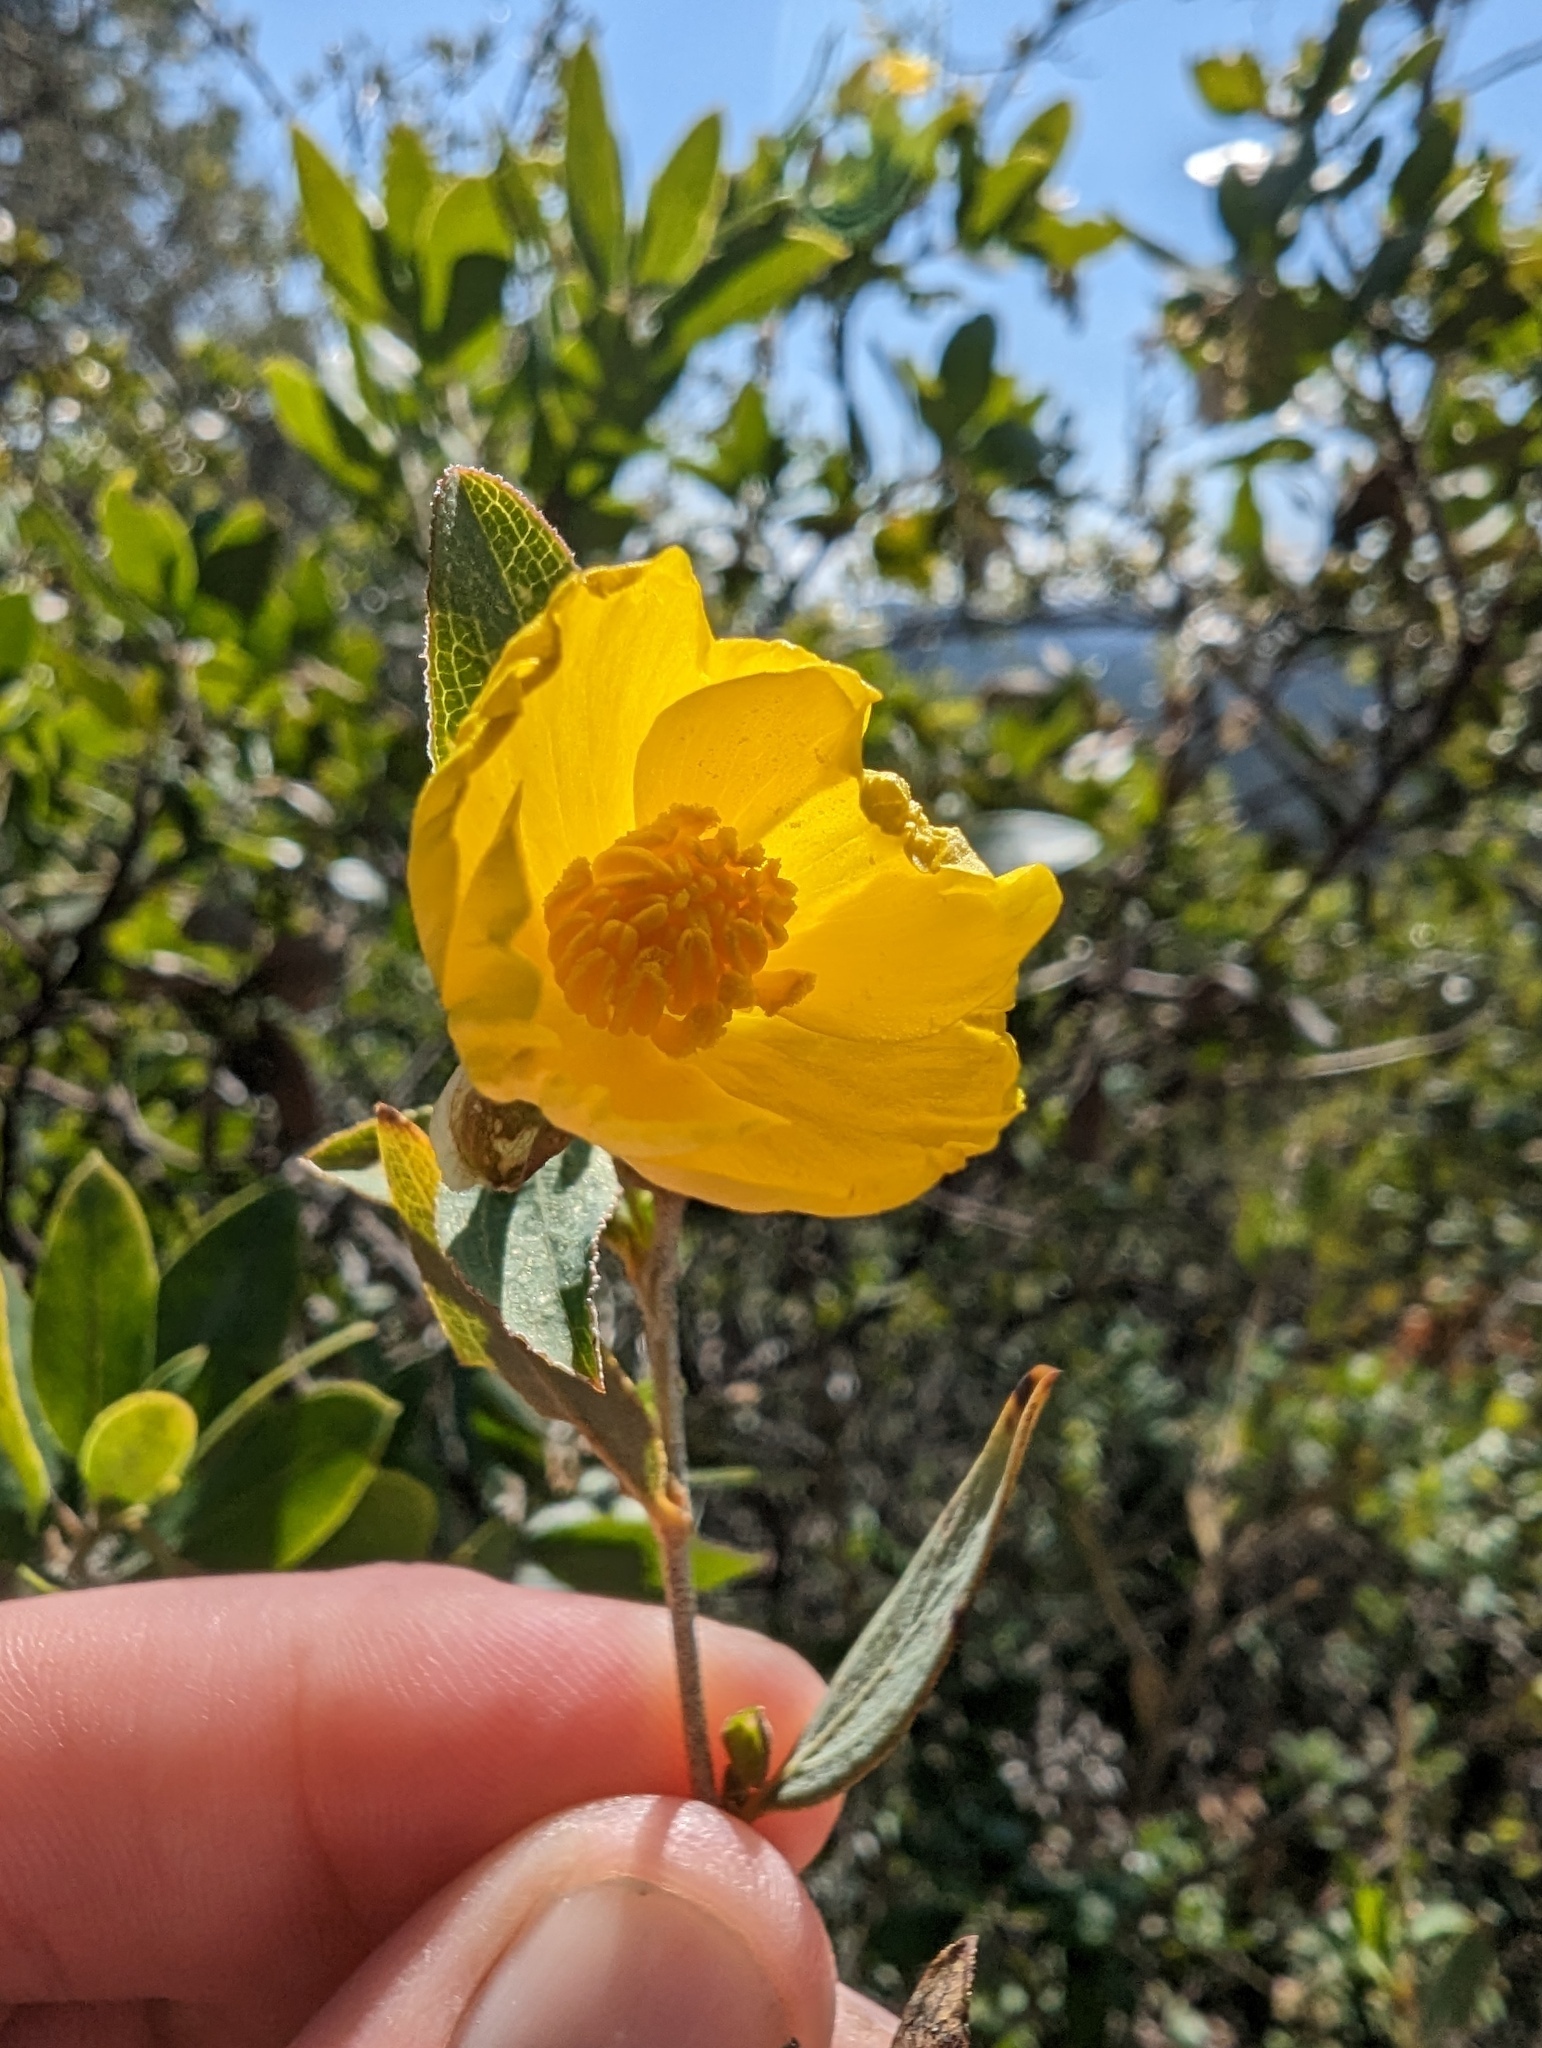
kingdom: Plantae
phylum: Tracheophyta
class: Magnoliopsida
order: Ranunculales
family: Papaveraceae
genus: Dendromecon
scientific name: Dendromecon rigida
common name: Tree poppy
